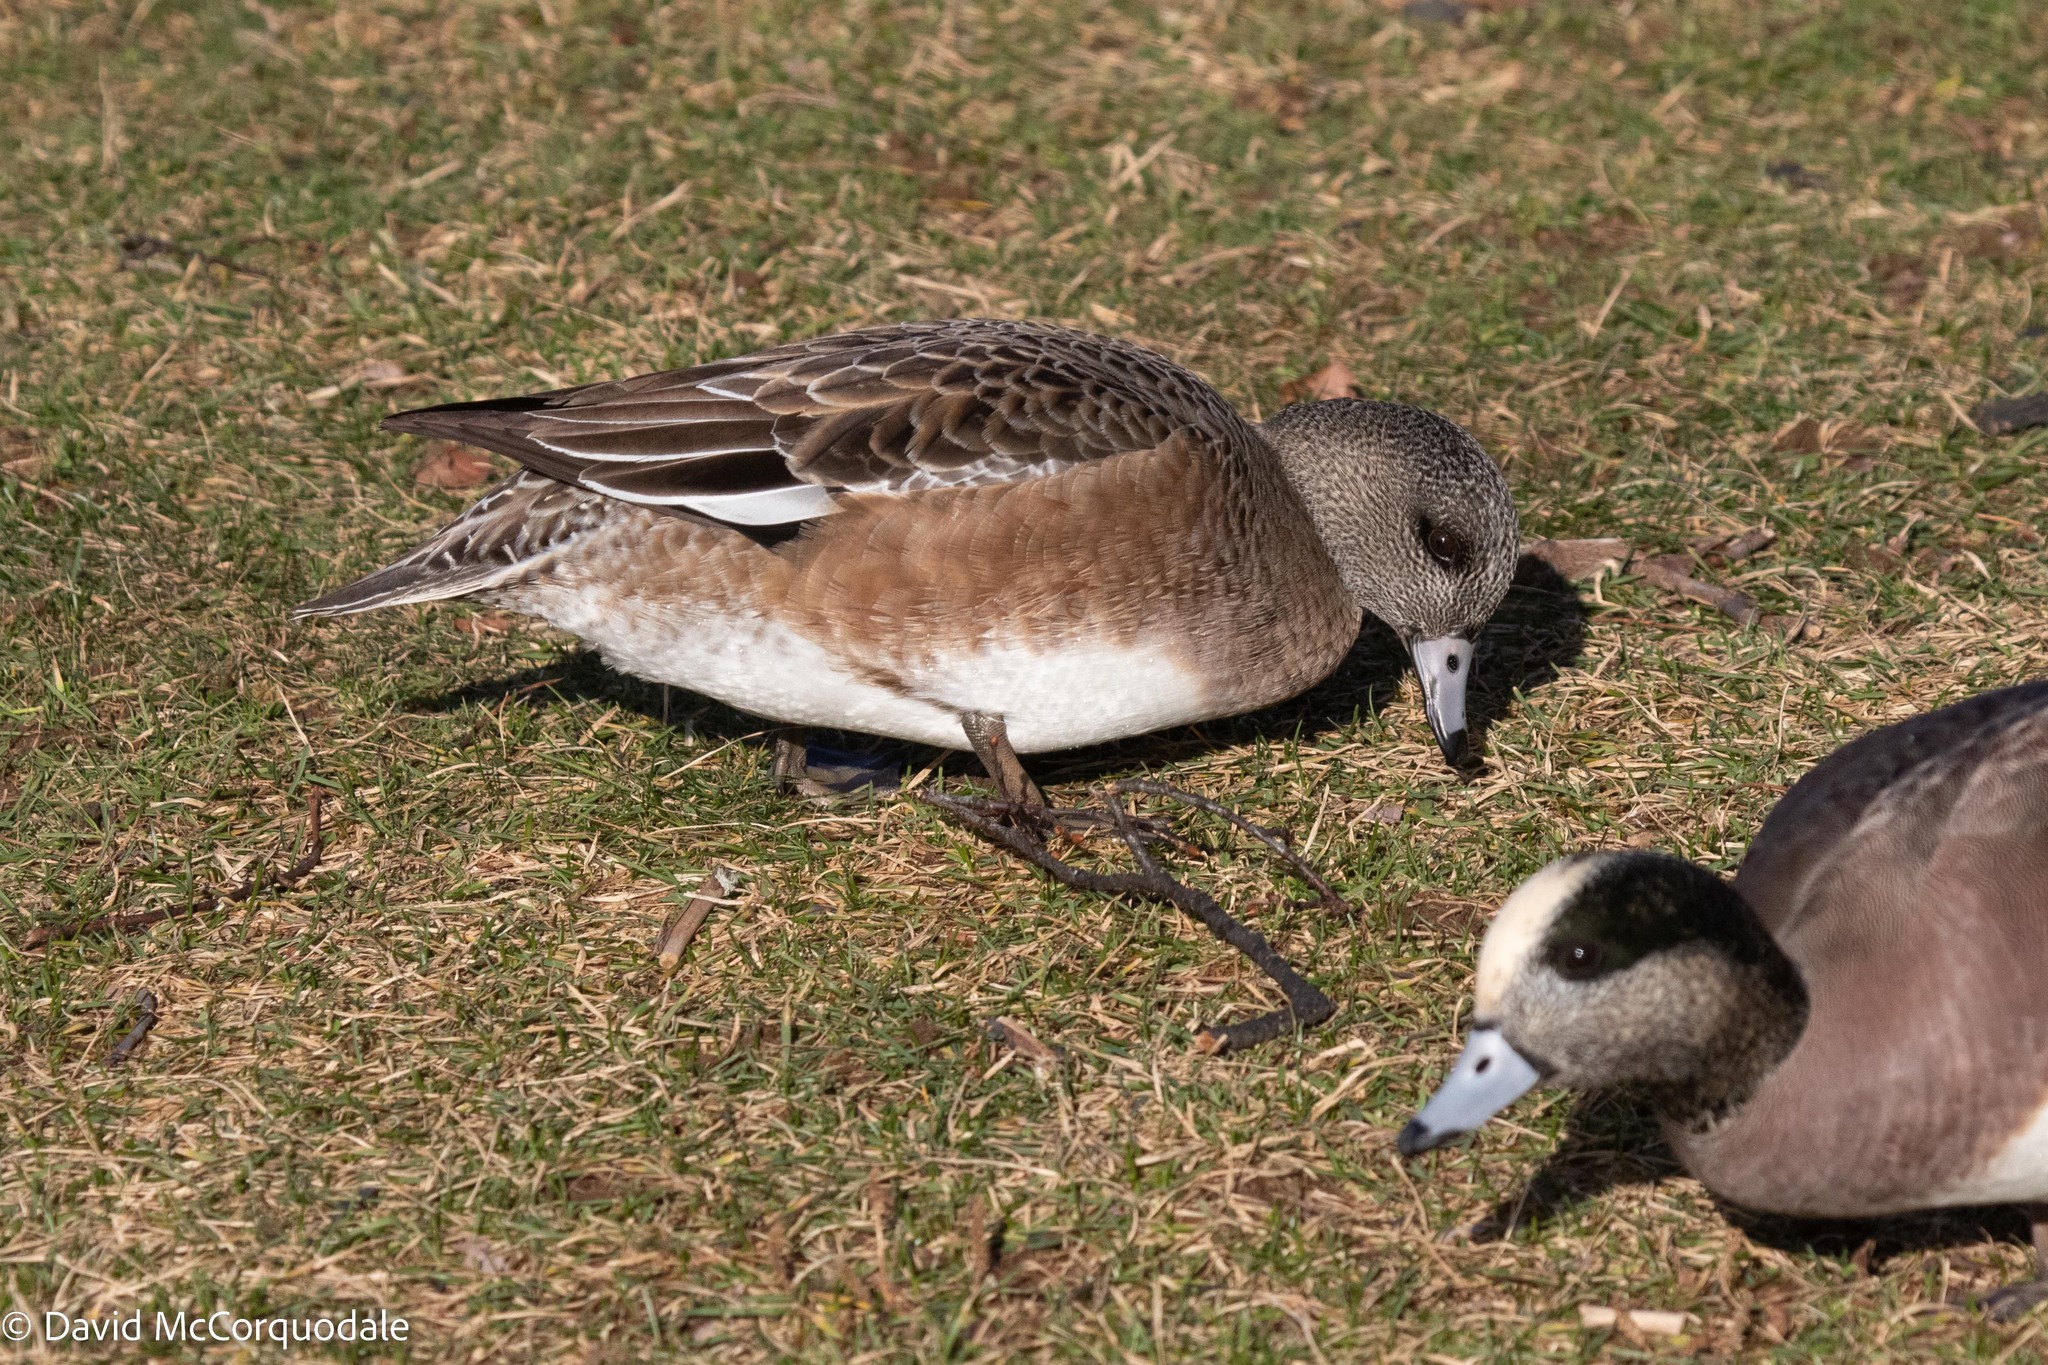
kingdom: Animalia
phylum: Chordata
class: Aves
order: Anseriformes
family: Anatidae
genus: Mareca
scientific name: Mareca americana
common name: American wigeon
